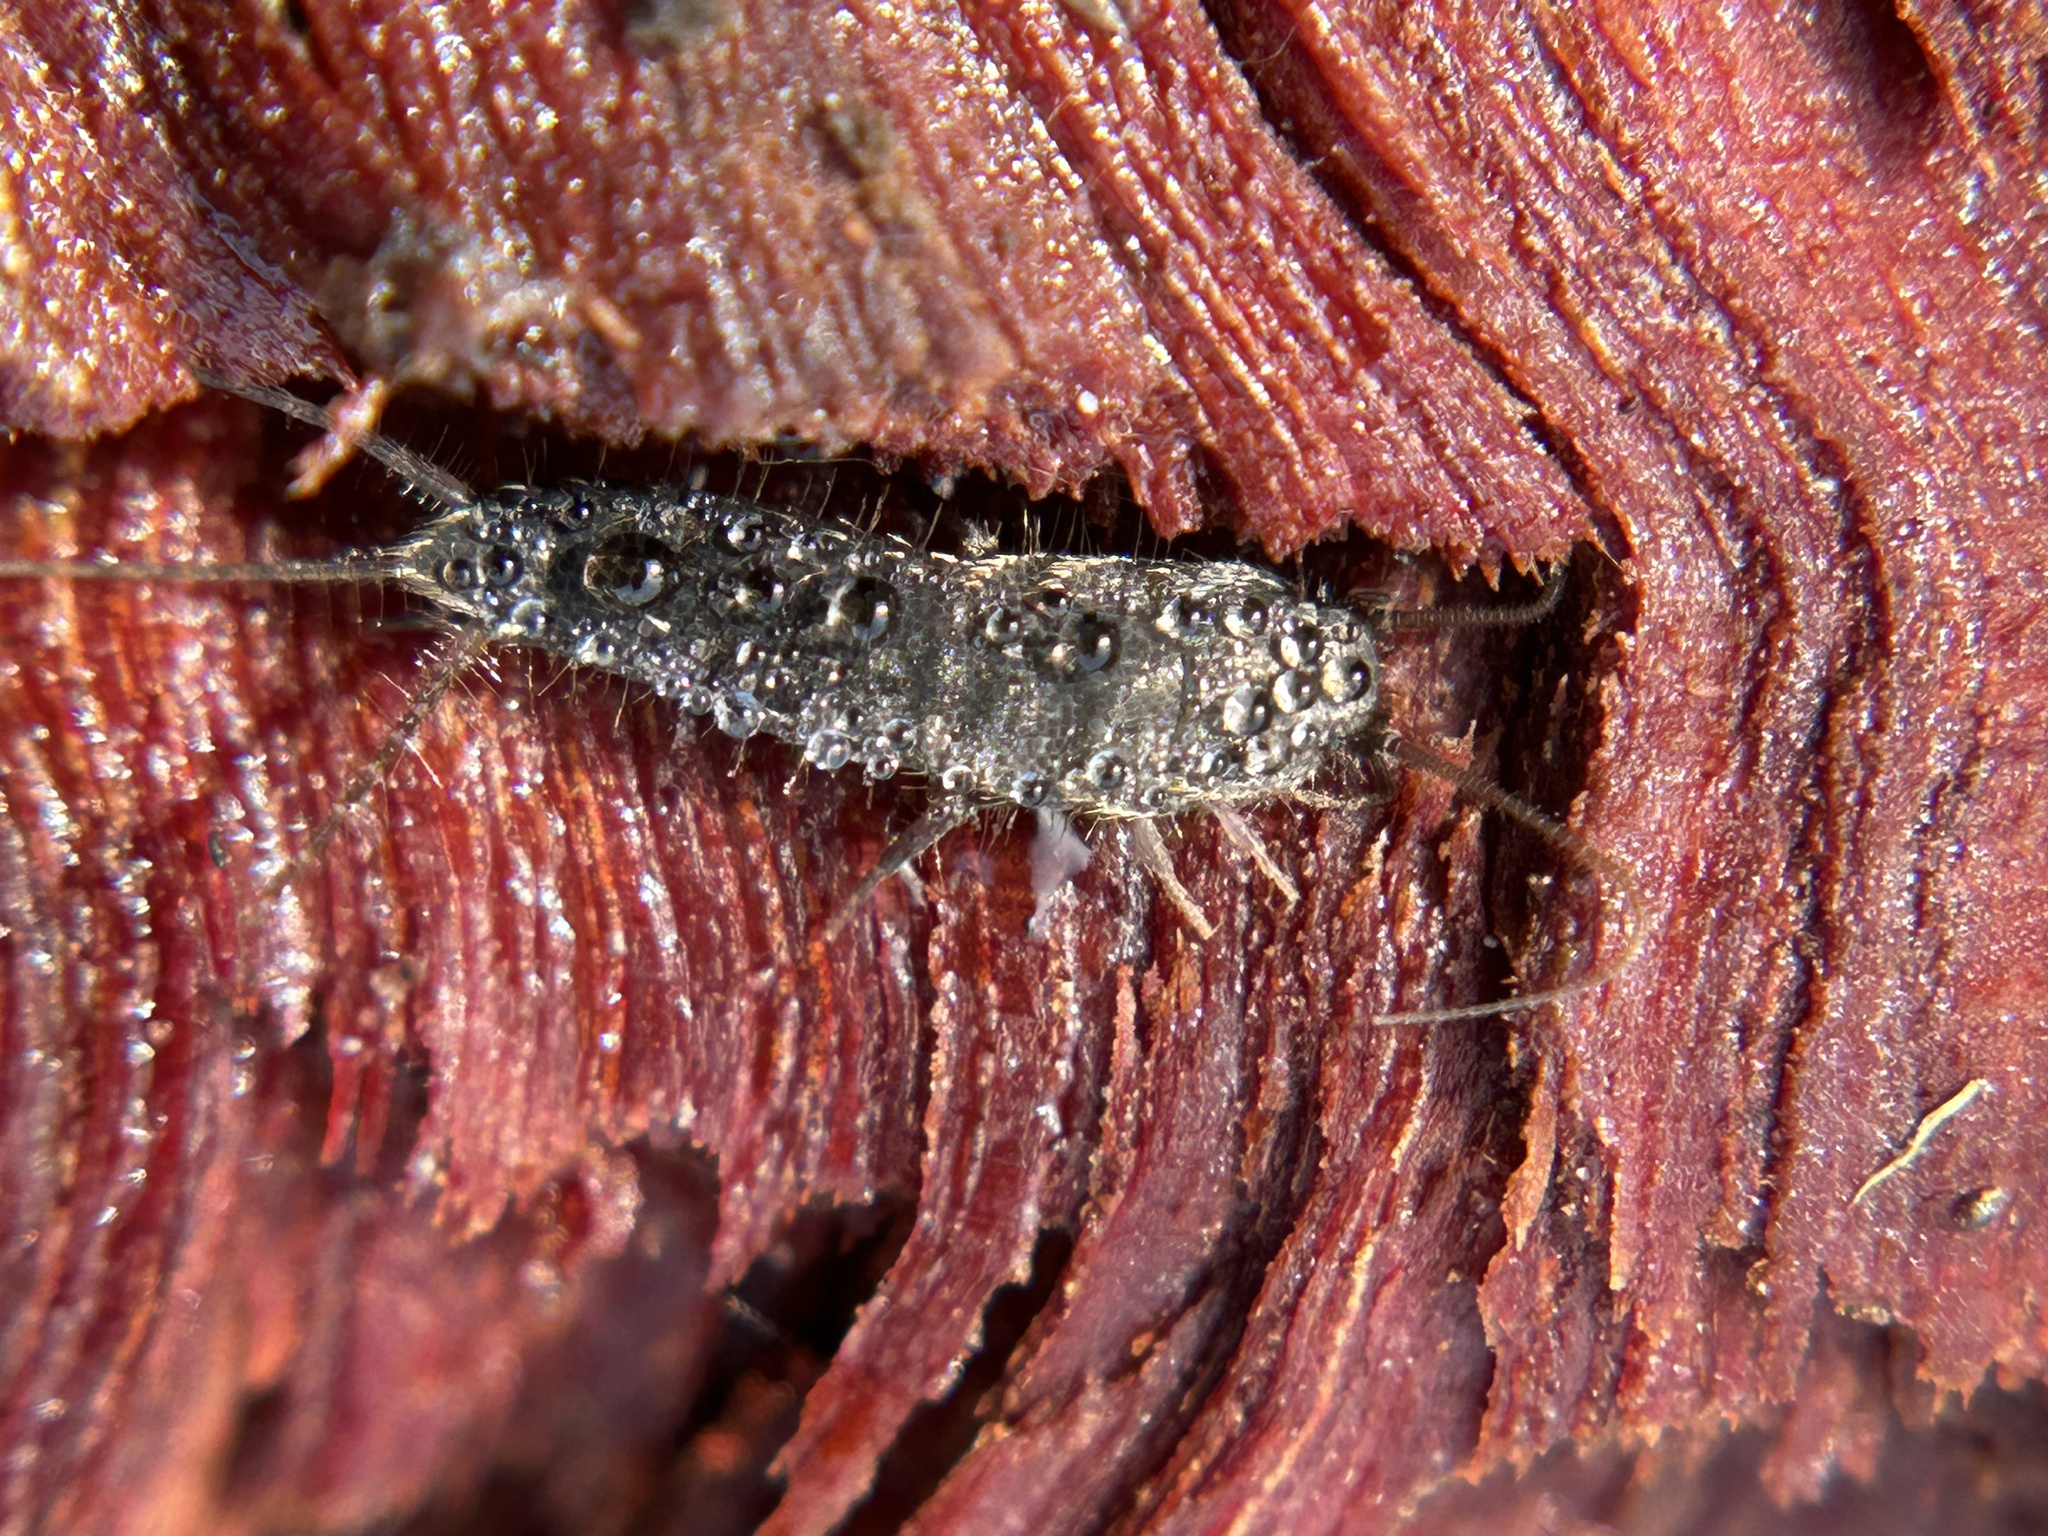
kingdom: Animalia
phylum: Arthropoda
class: Insecta
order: Zygentoma
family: Lepismatidae
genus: Allacrotelsa
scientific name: Allacrotelsa spinulata
